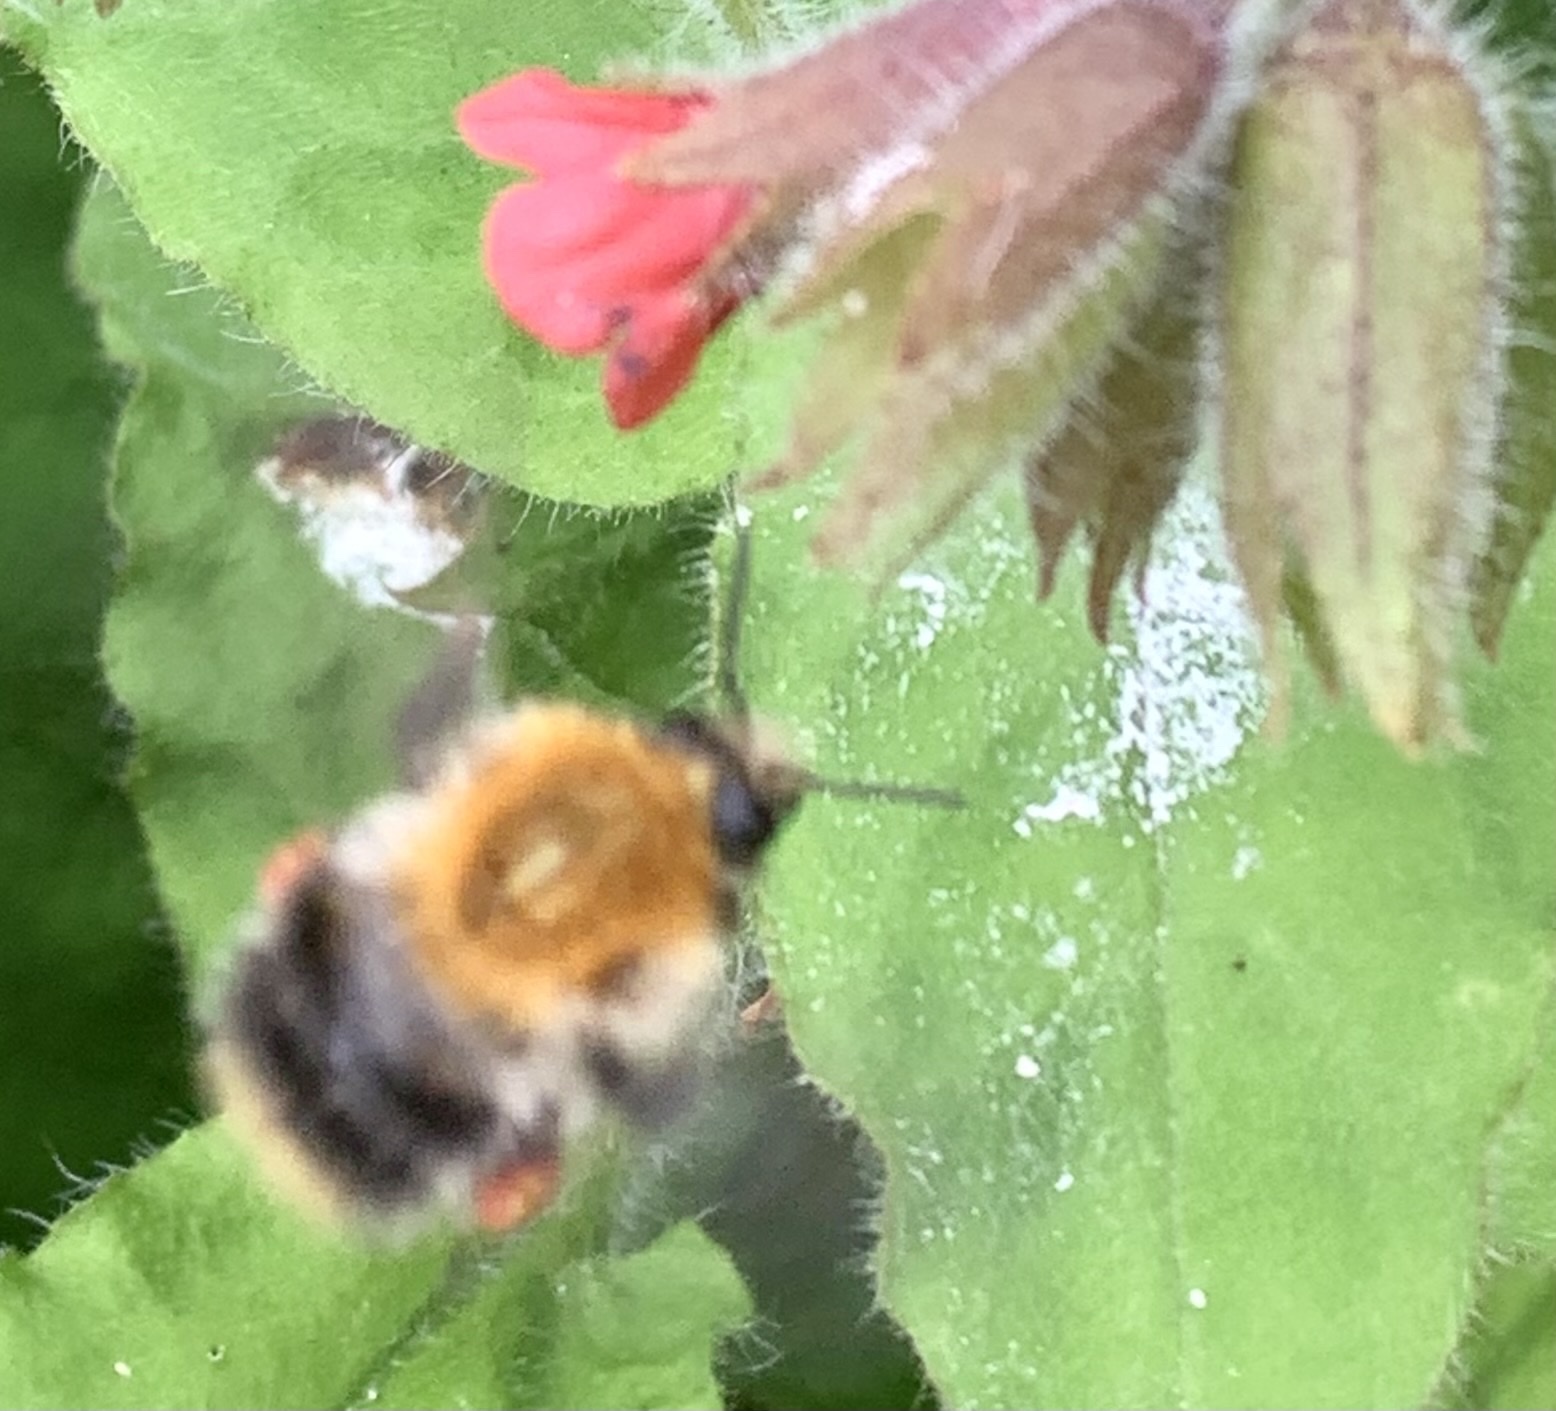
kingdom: Animalia
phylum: Arthropoda
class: Insecta
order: Hymenoptera
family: Apidae
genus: Bombus
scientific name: Bombus pascuorum
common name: Common carder bee
